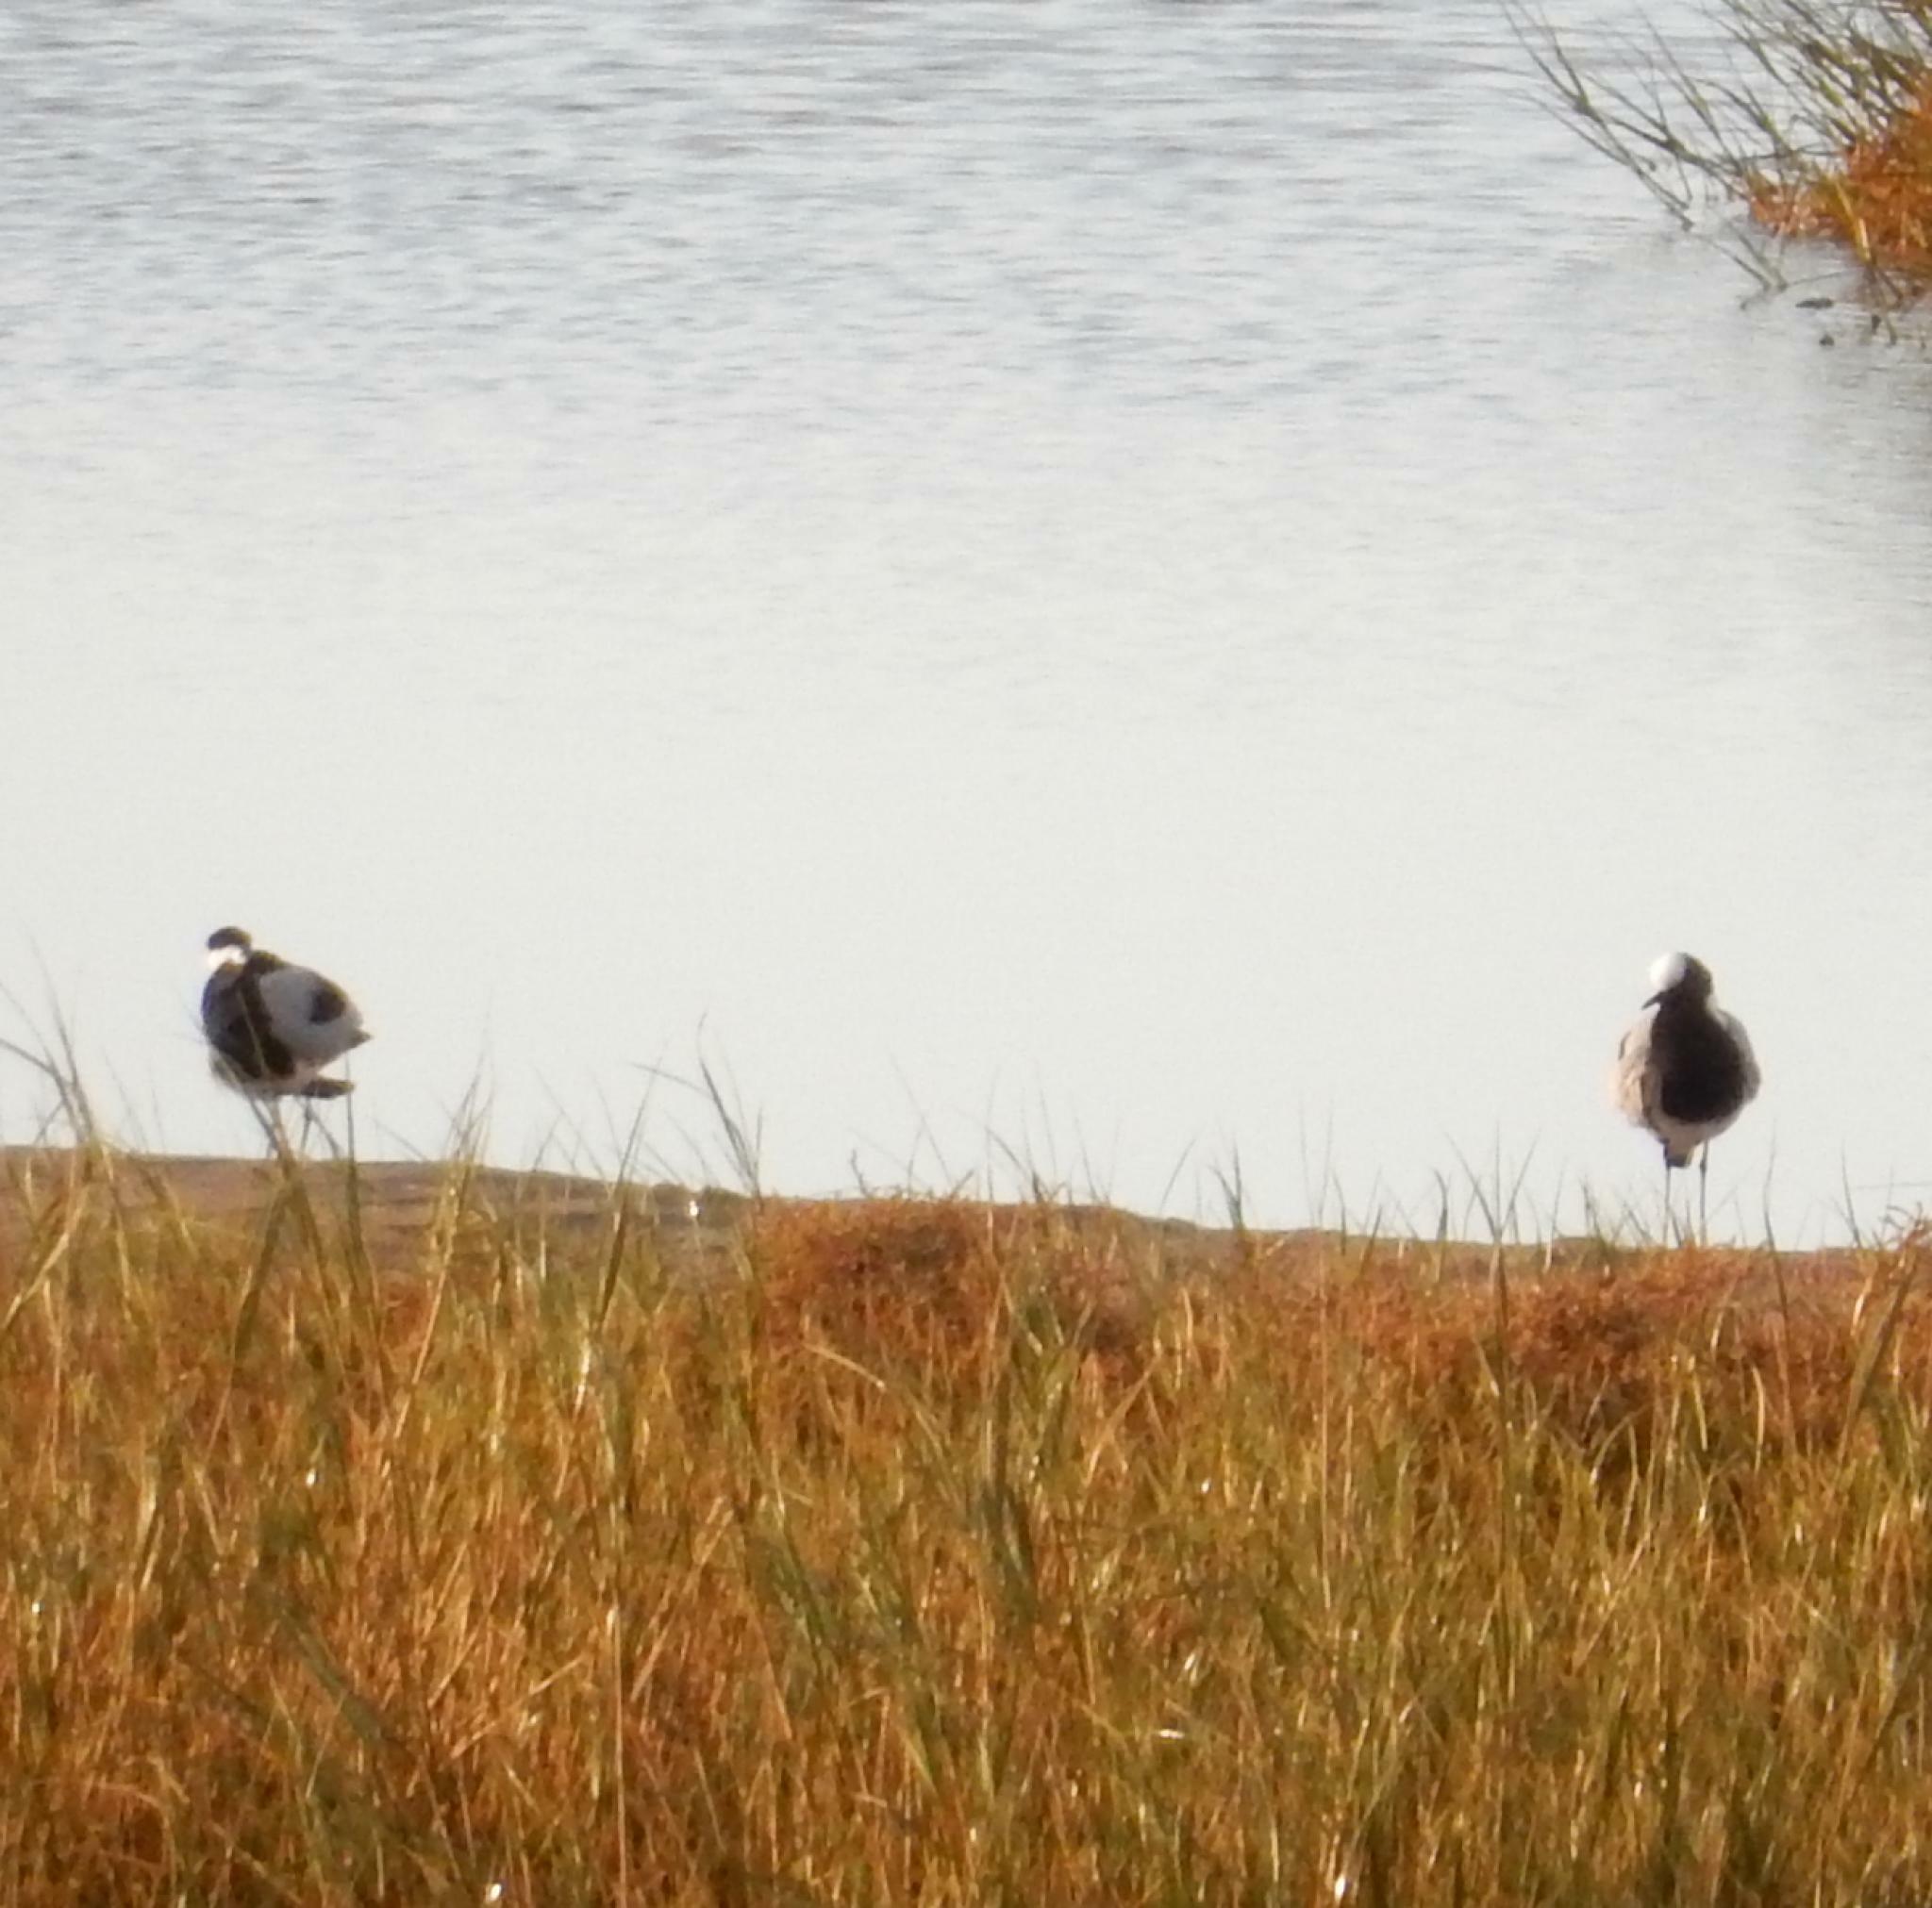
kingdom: Animalia
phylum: Chordata
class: Aves
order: Charadriiformes
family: Charadriidae
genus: Vanellus
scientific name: Vanellus armatus
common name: Blacksmith lapwing
